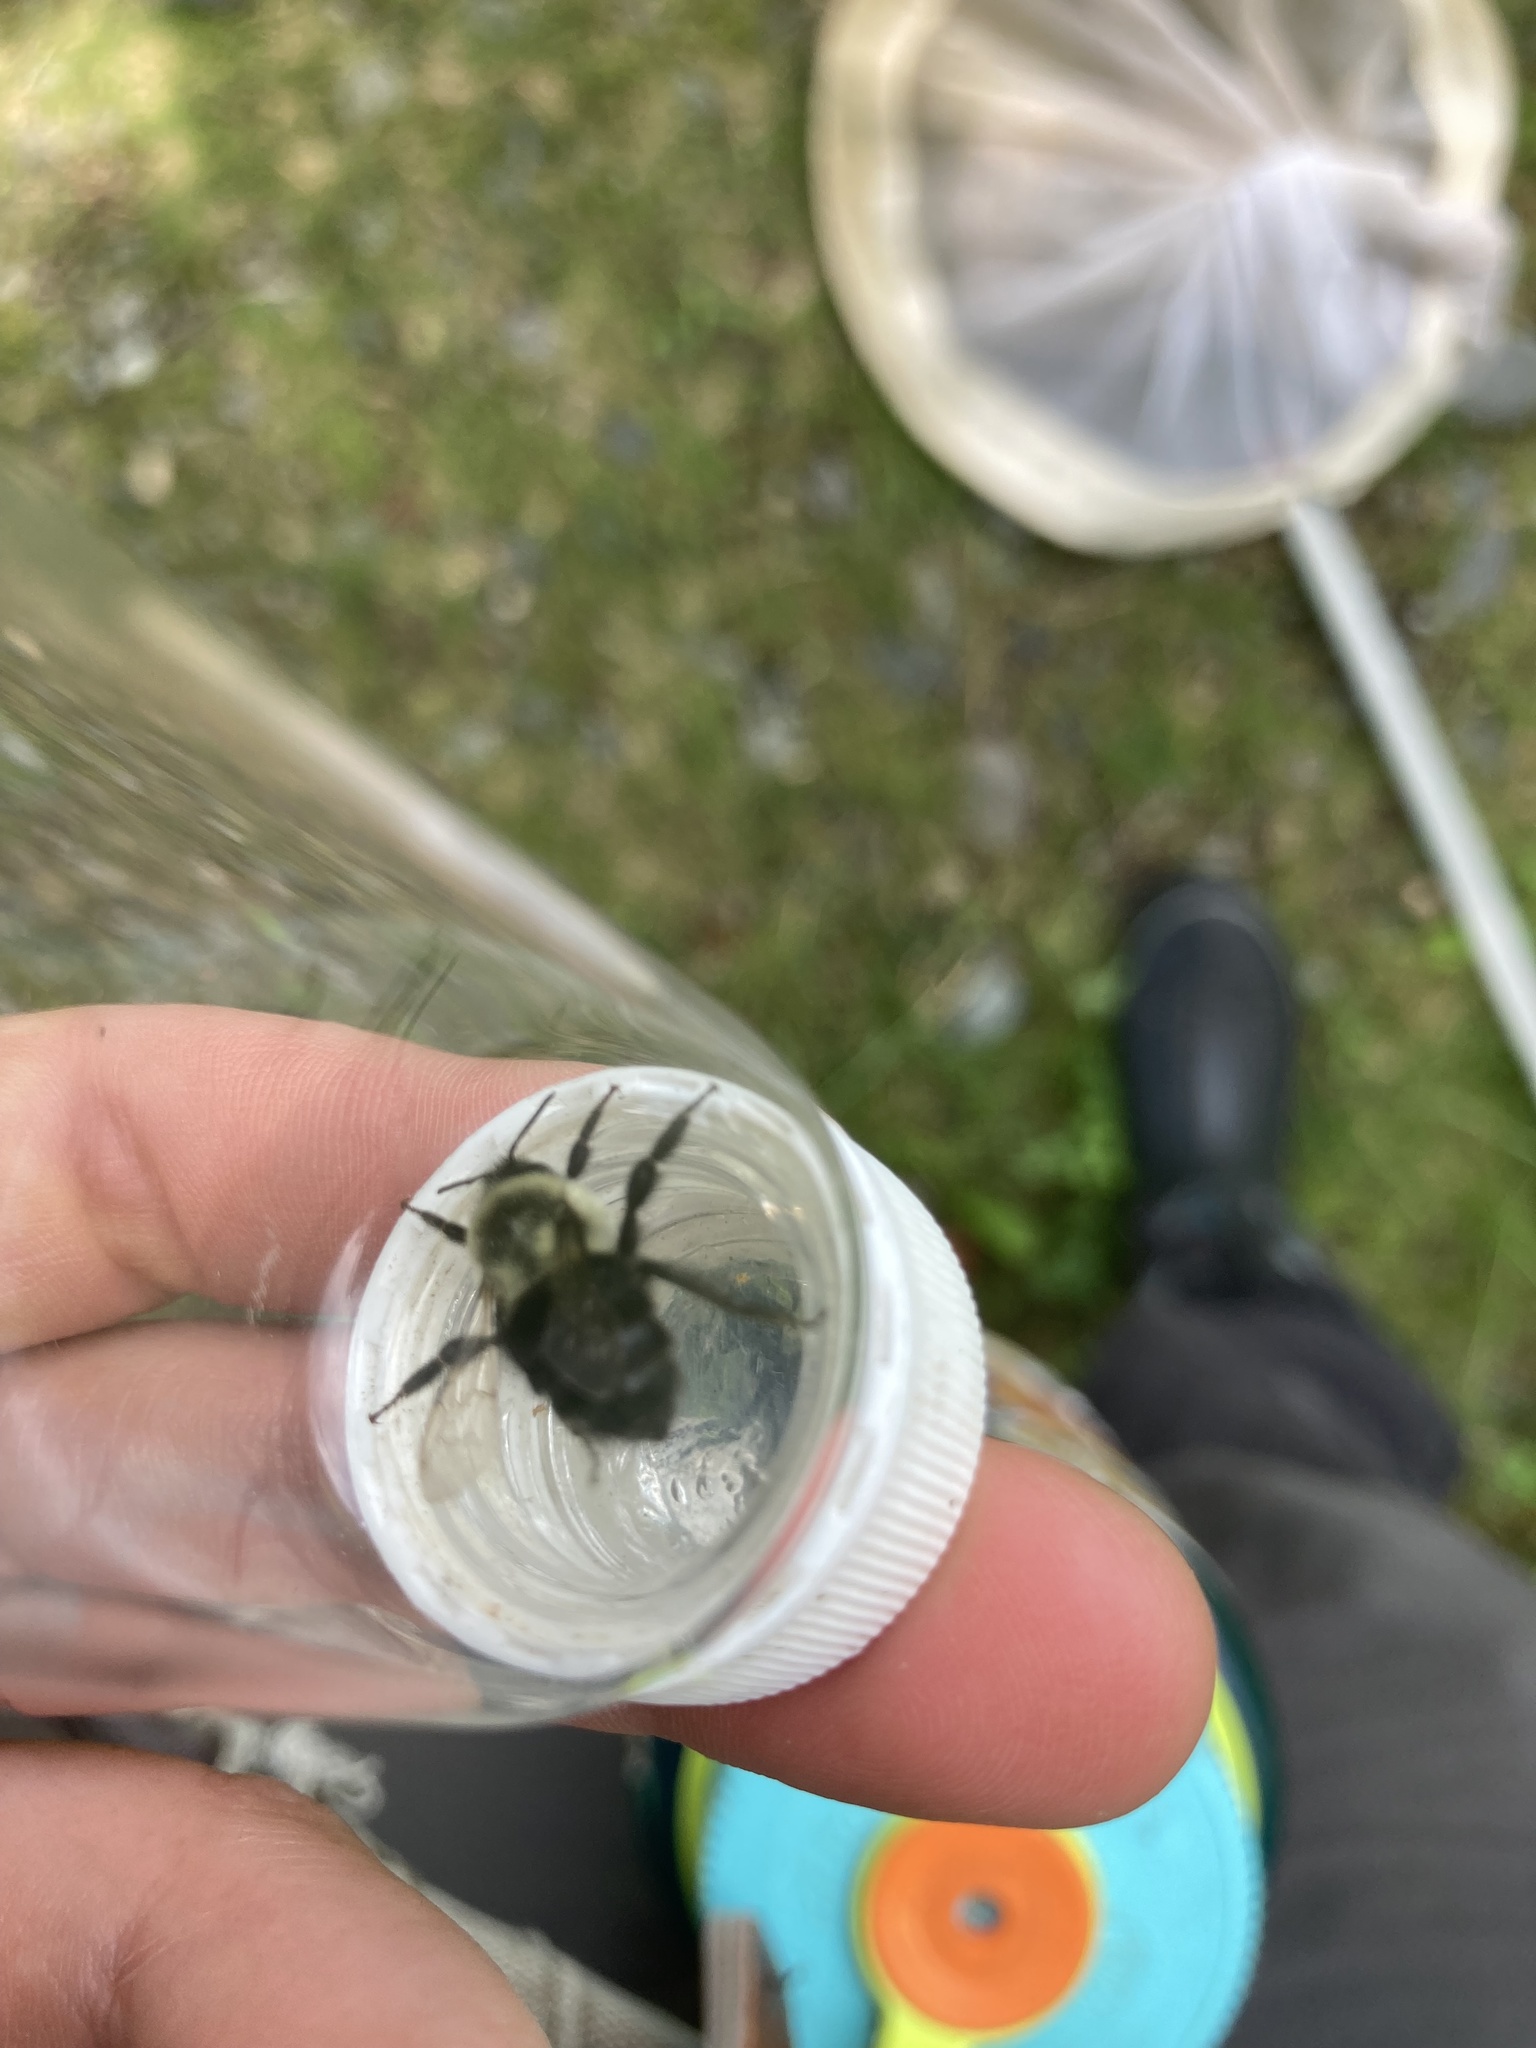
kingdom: Animalia
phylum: Arthropoda
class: Insecta
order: Hymenoptera
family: Apidae
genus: Bombus
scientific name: Bombus impatiens
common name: Common eastern bumble bee
